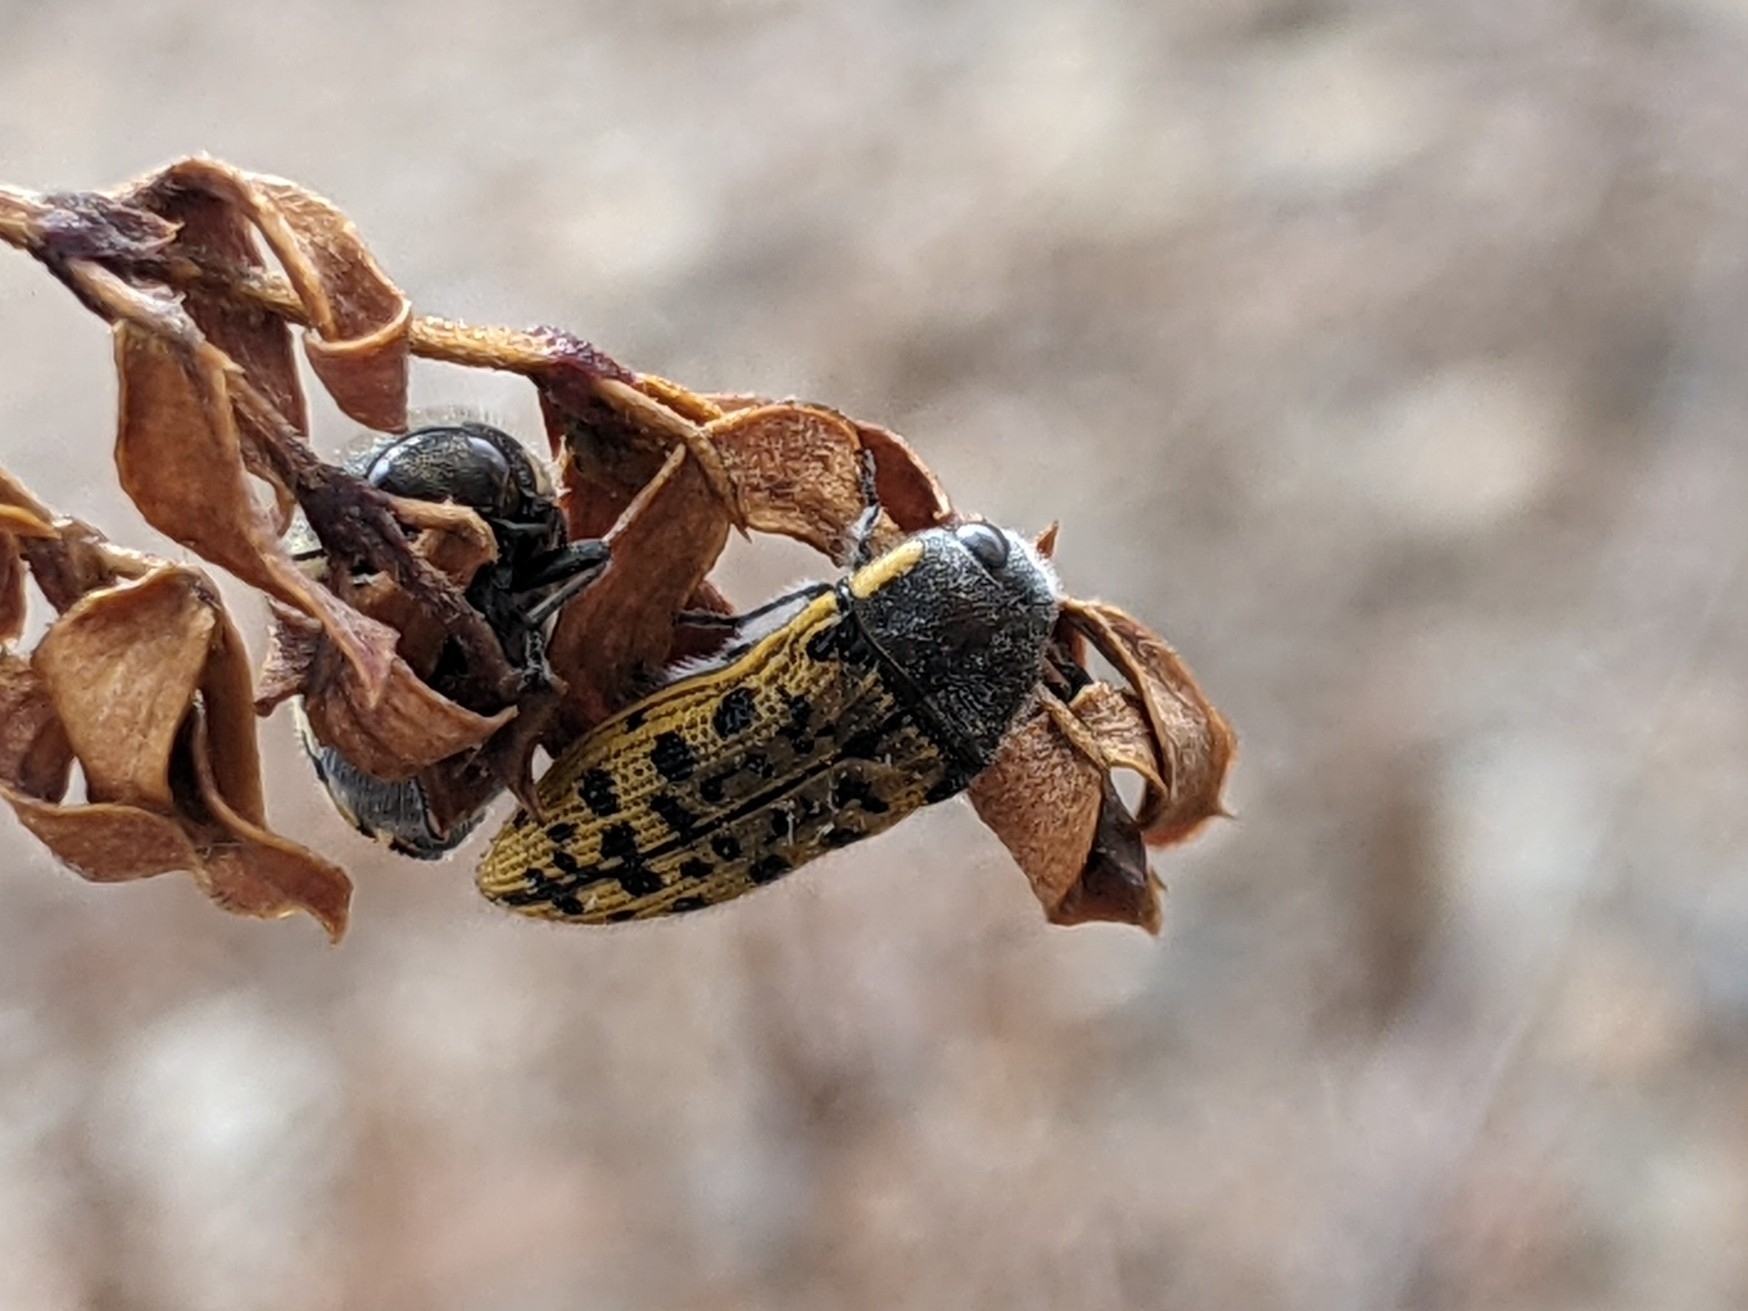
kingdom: Animalia
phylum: Arthropoda
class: Insecta
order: Coleoptera
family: Buprestidae
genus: Acmaeodera
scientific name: Acmaeodera princeps
